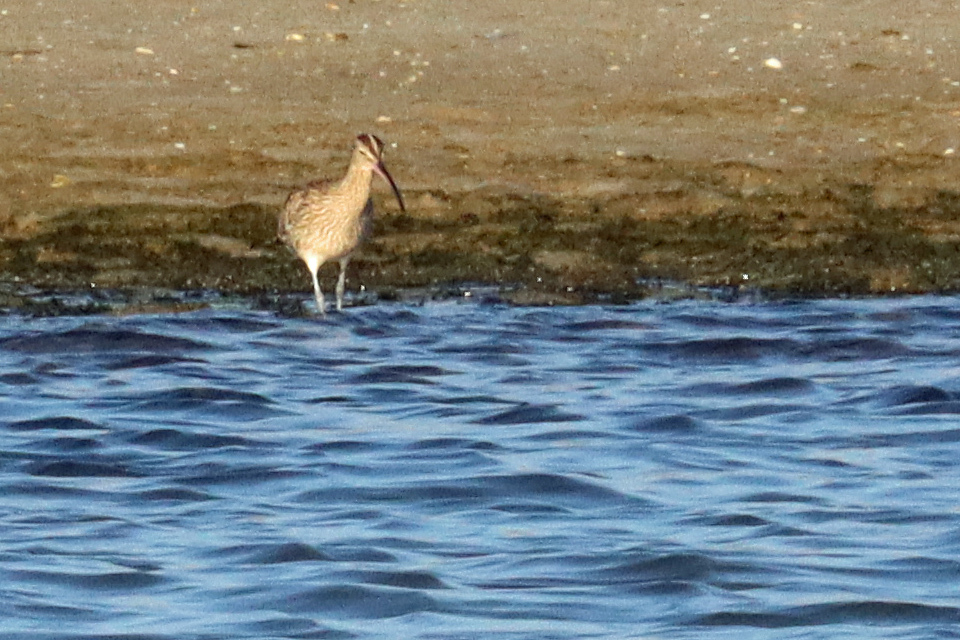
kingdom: Animalia
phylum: Chordata
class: Aves
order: Charadriiformes
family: Scolopacidae
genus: Numenius
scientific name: Numenius phaeopus
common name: Whimbrel
